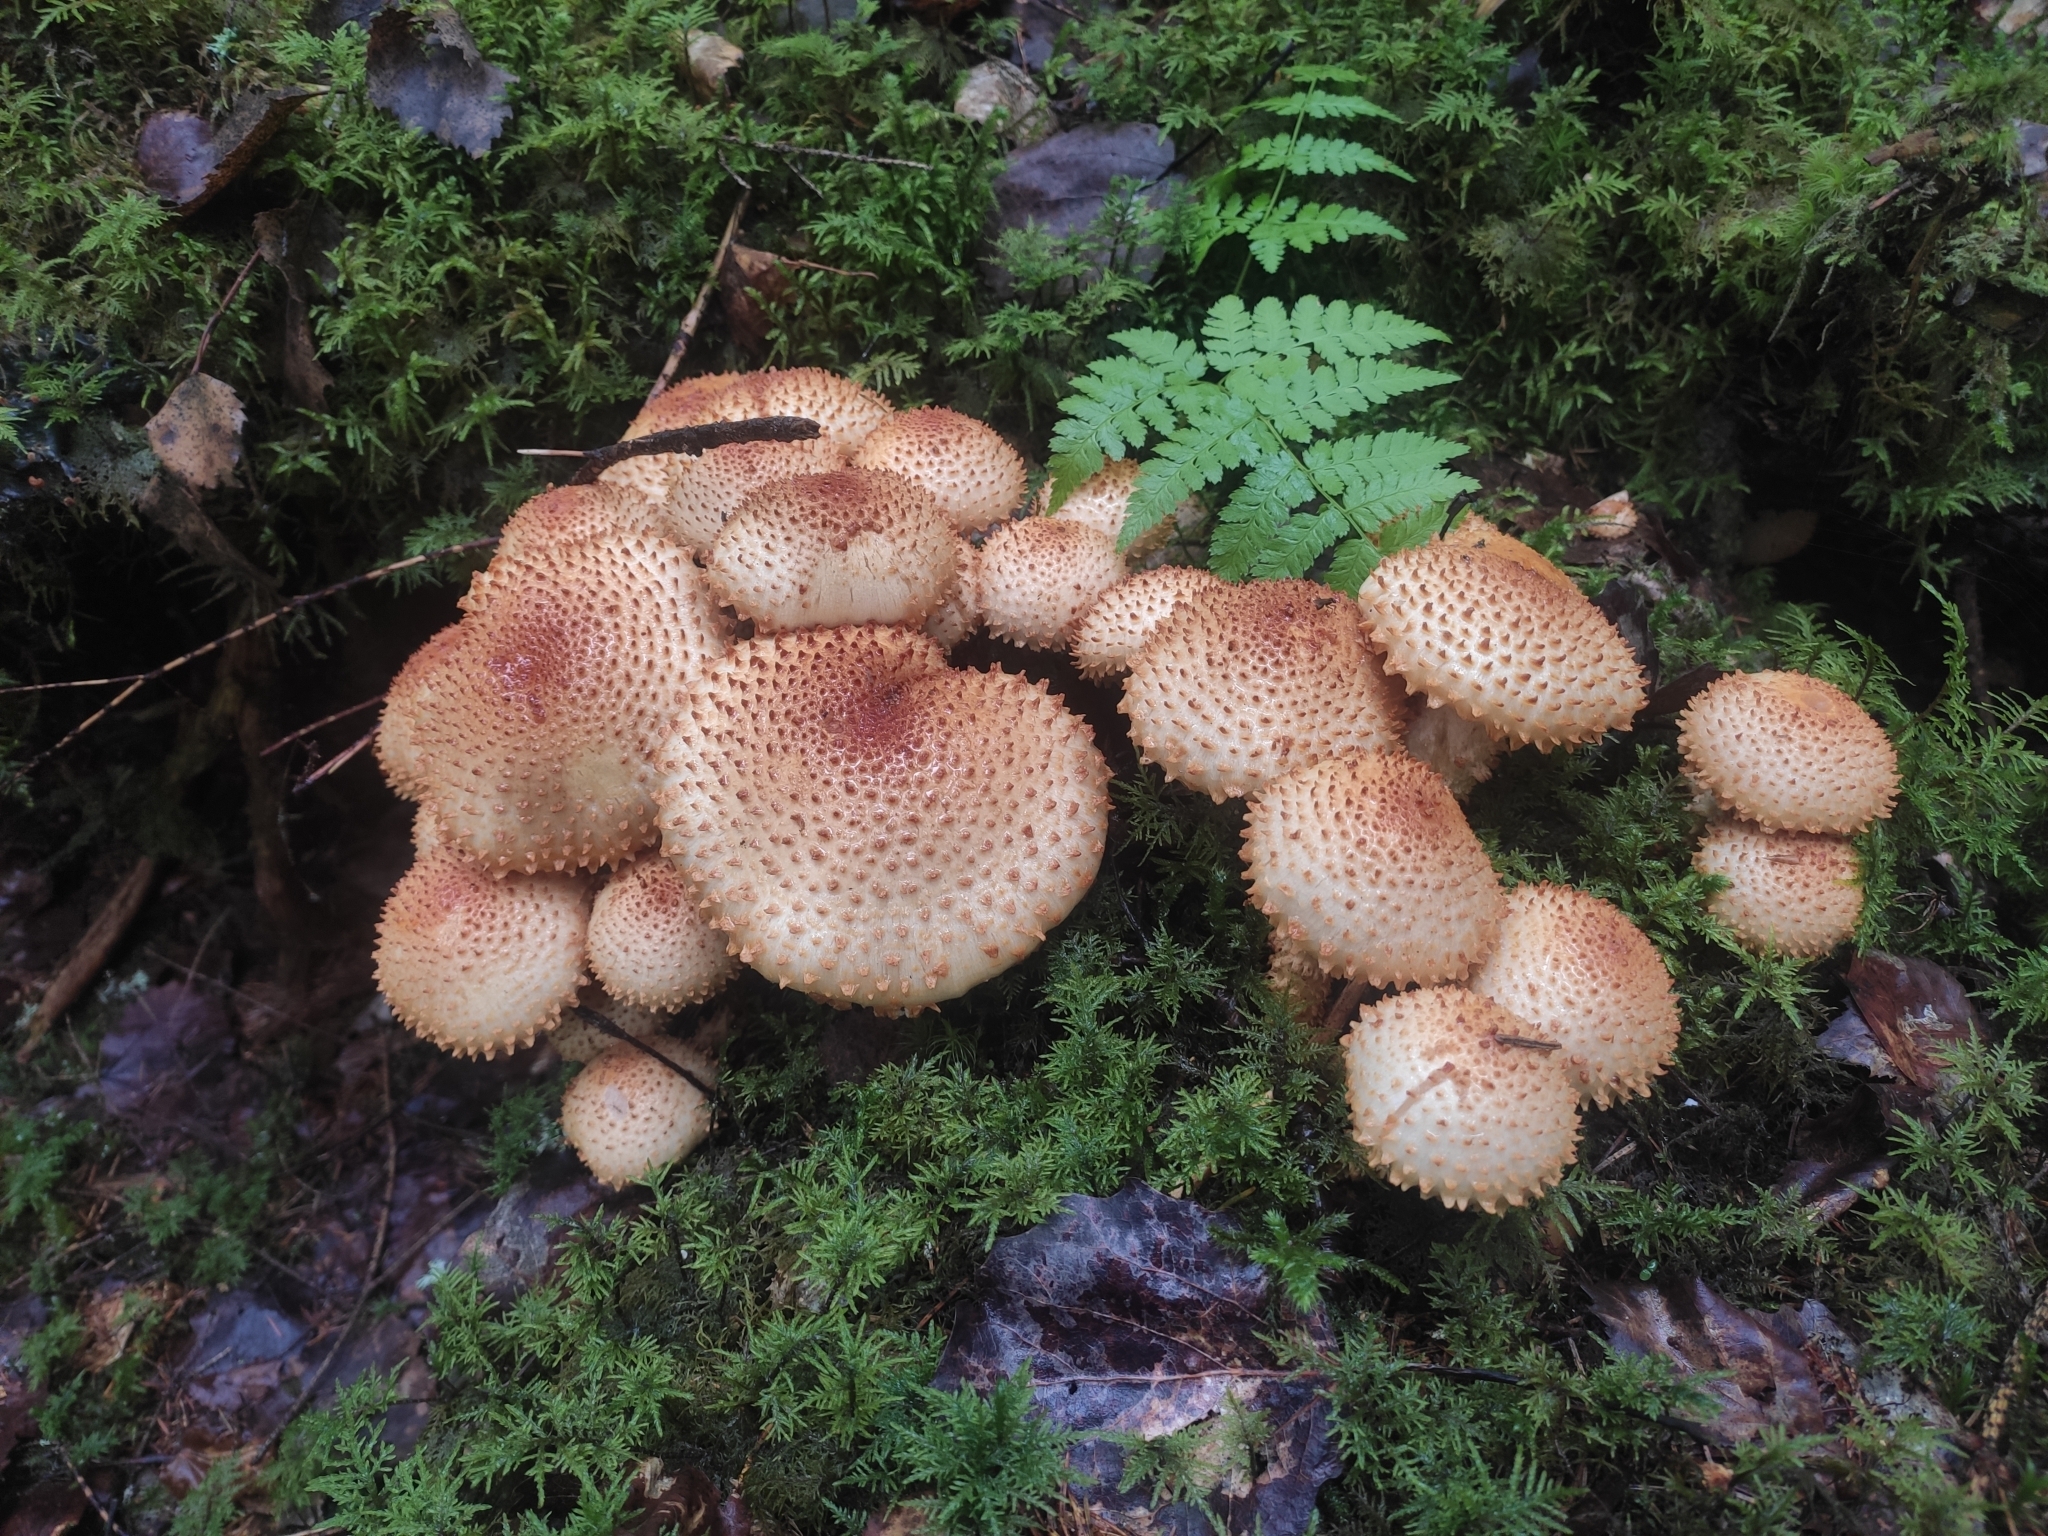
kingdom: Fungi
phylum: Basidiomycota
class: Agaricomycetes
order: Agaricales
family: Strophariaceae
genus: Pholiota
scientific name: Pholiota squarrosa
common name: Shaggy pholiota
